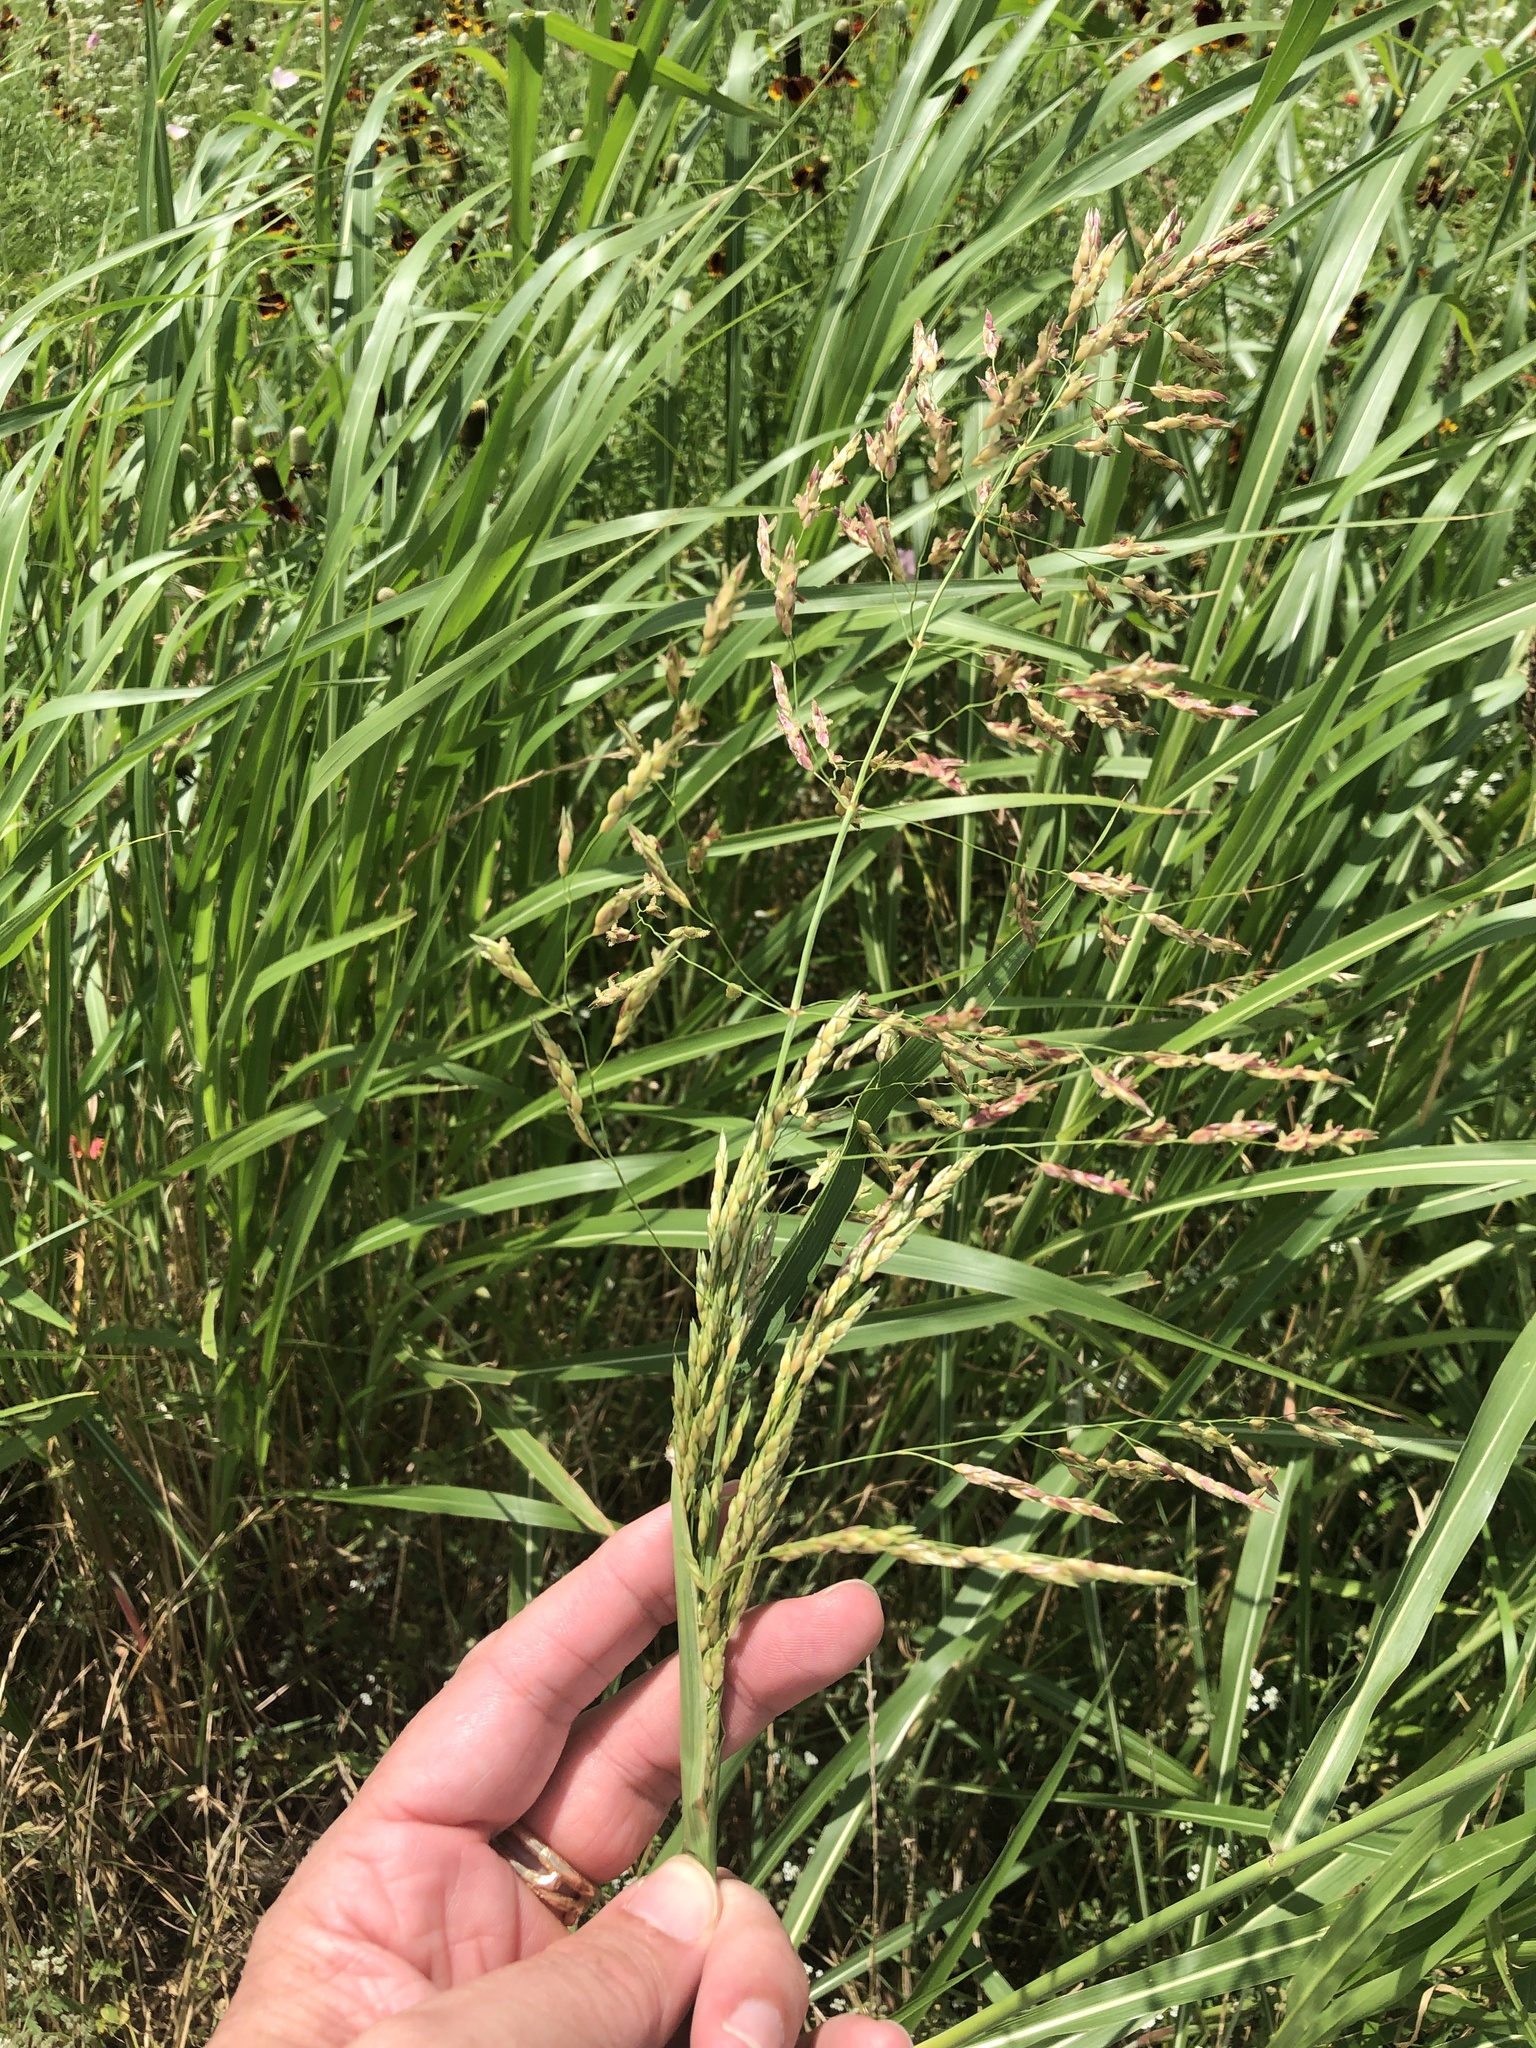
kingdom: Plantae
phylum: Tracheophyta
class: Liliopsida
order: Poales
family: Poaceae
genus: Sorghum
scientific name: Sorghum halepense
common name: Johnson-grass
